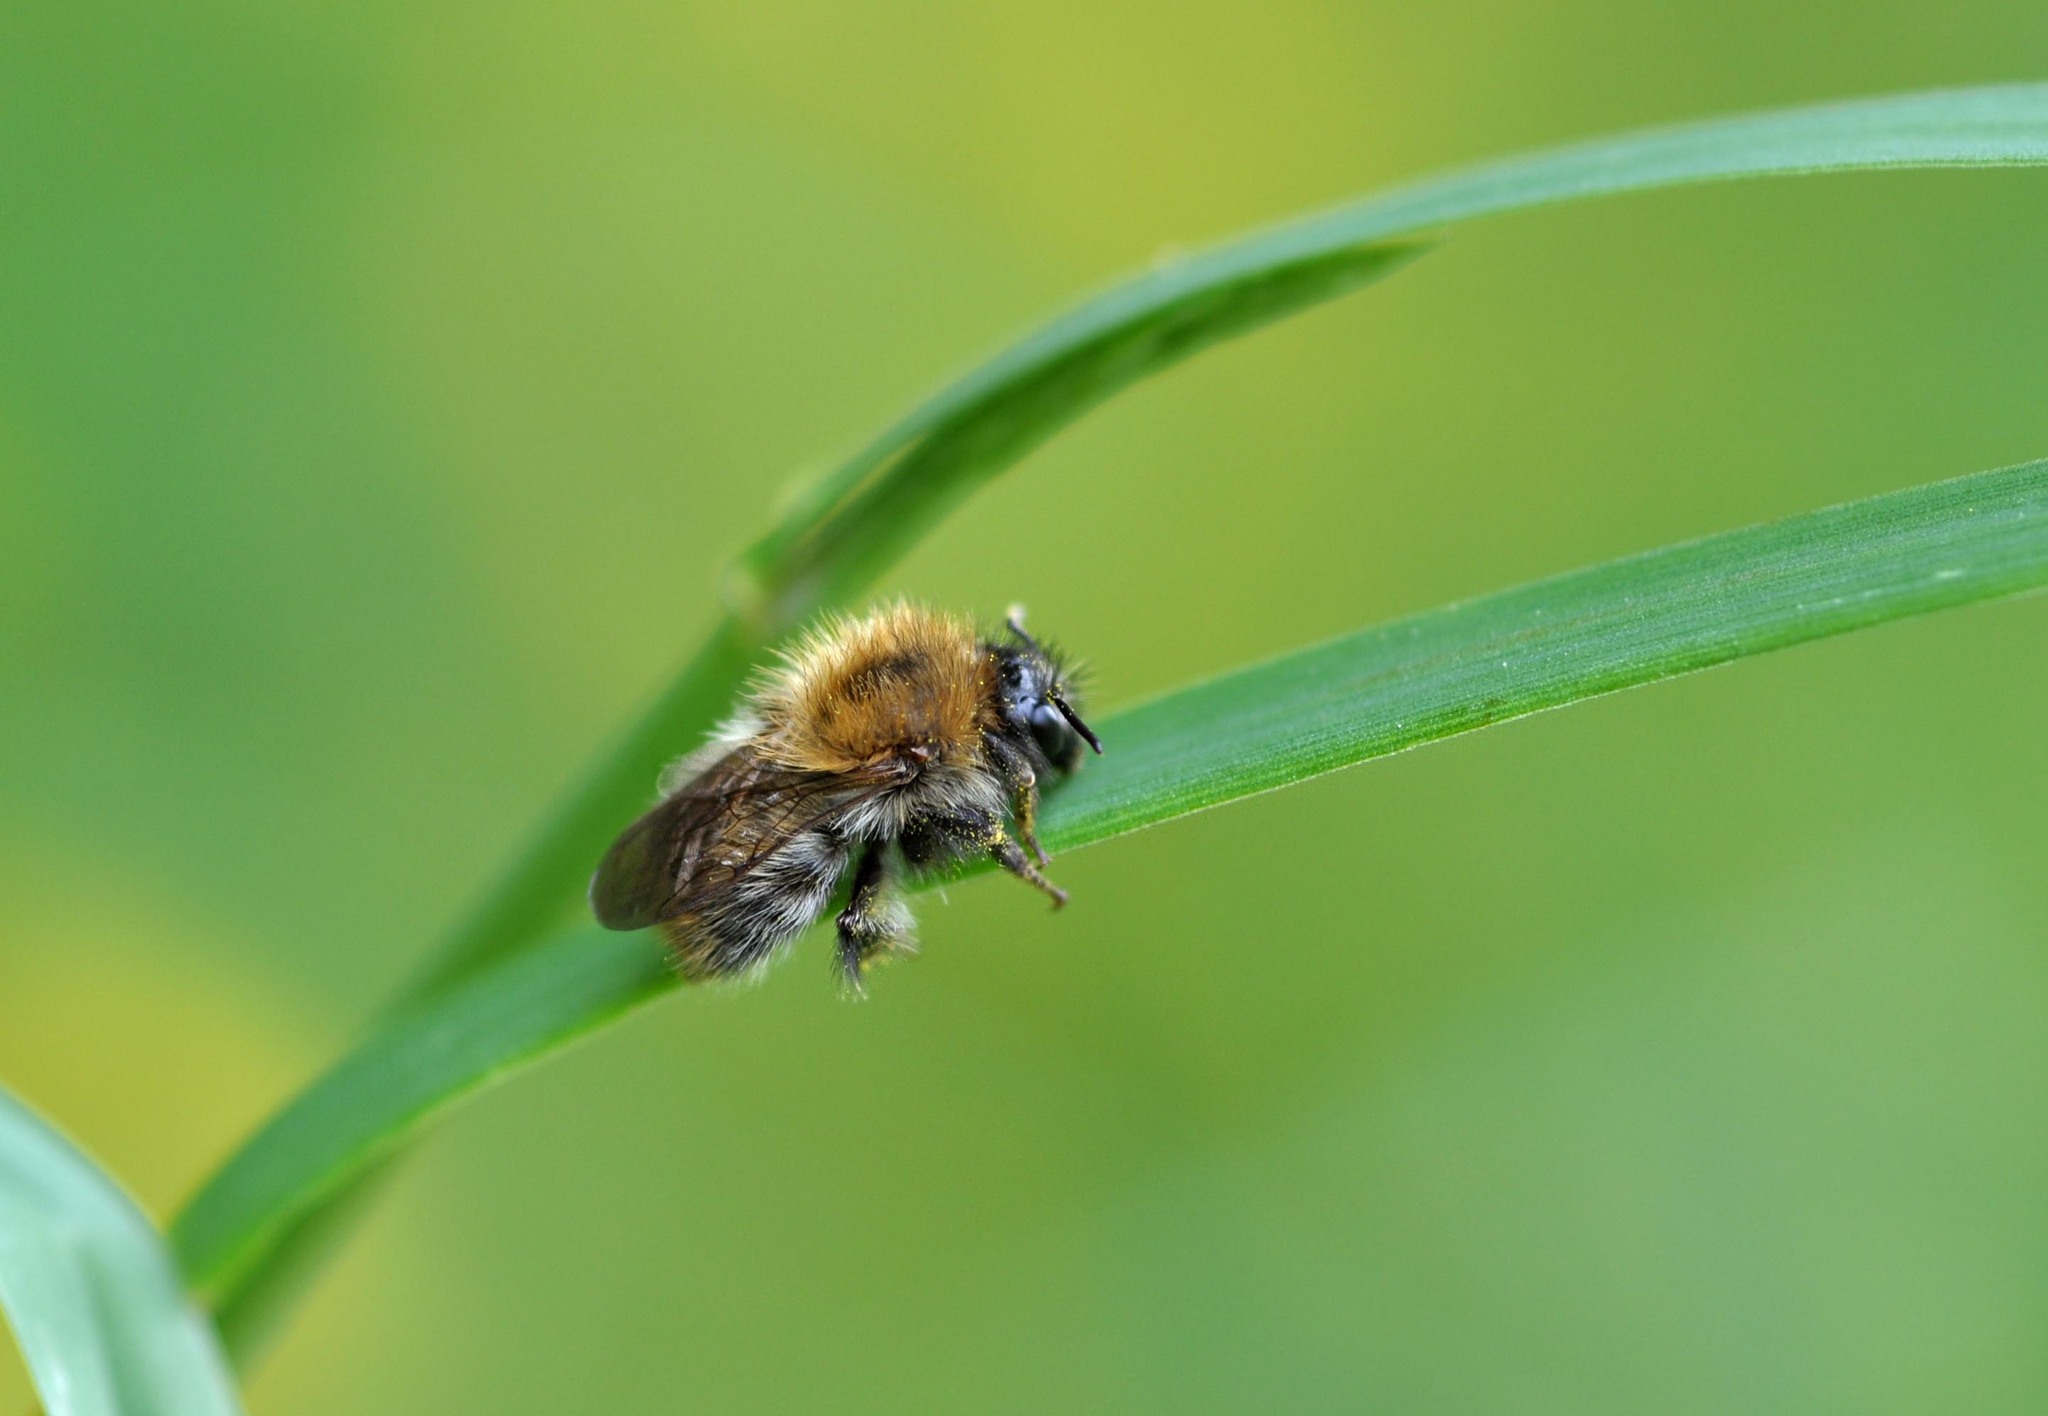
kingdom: Animalia
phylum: Arthropoda
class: Insecta
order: Hymenoptera
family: Apidae
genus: Bombus
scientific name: Bombus pascuorum
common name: Common carder bee
